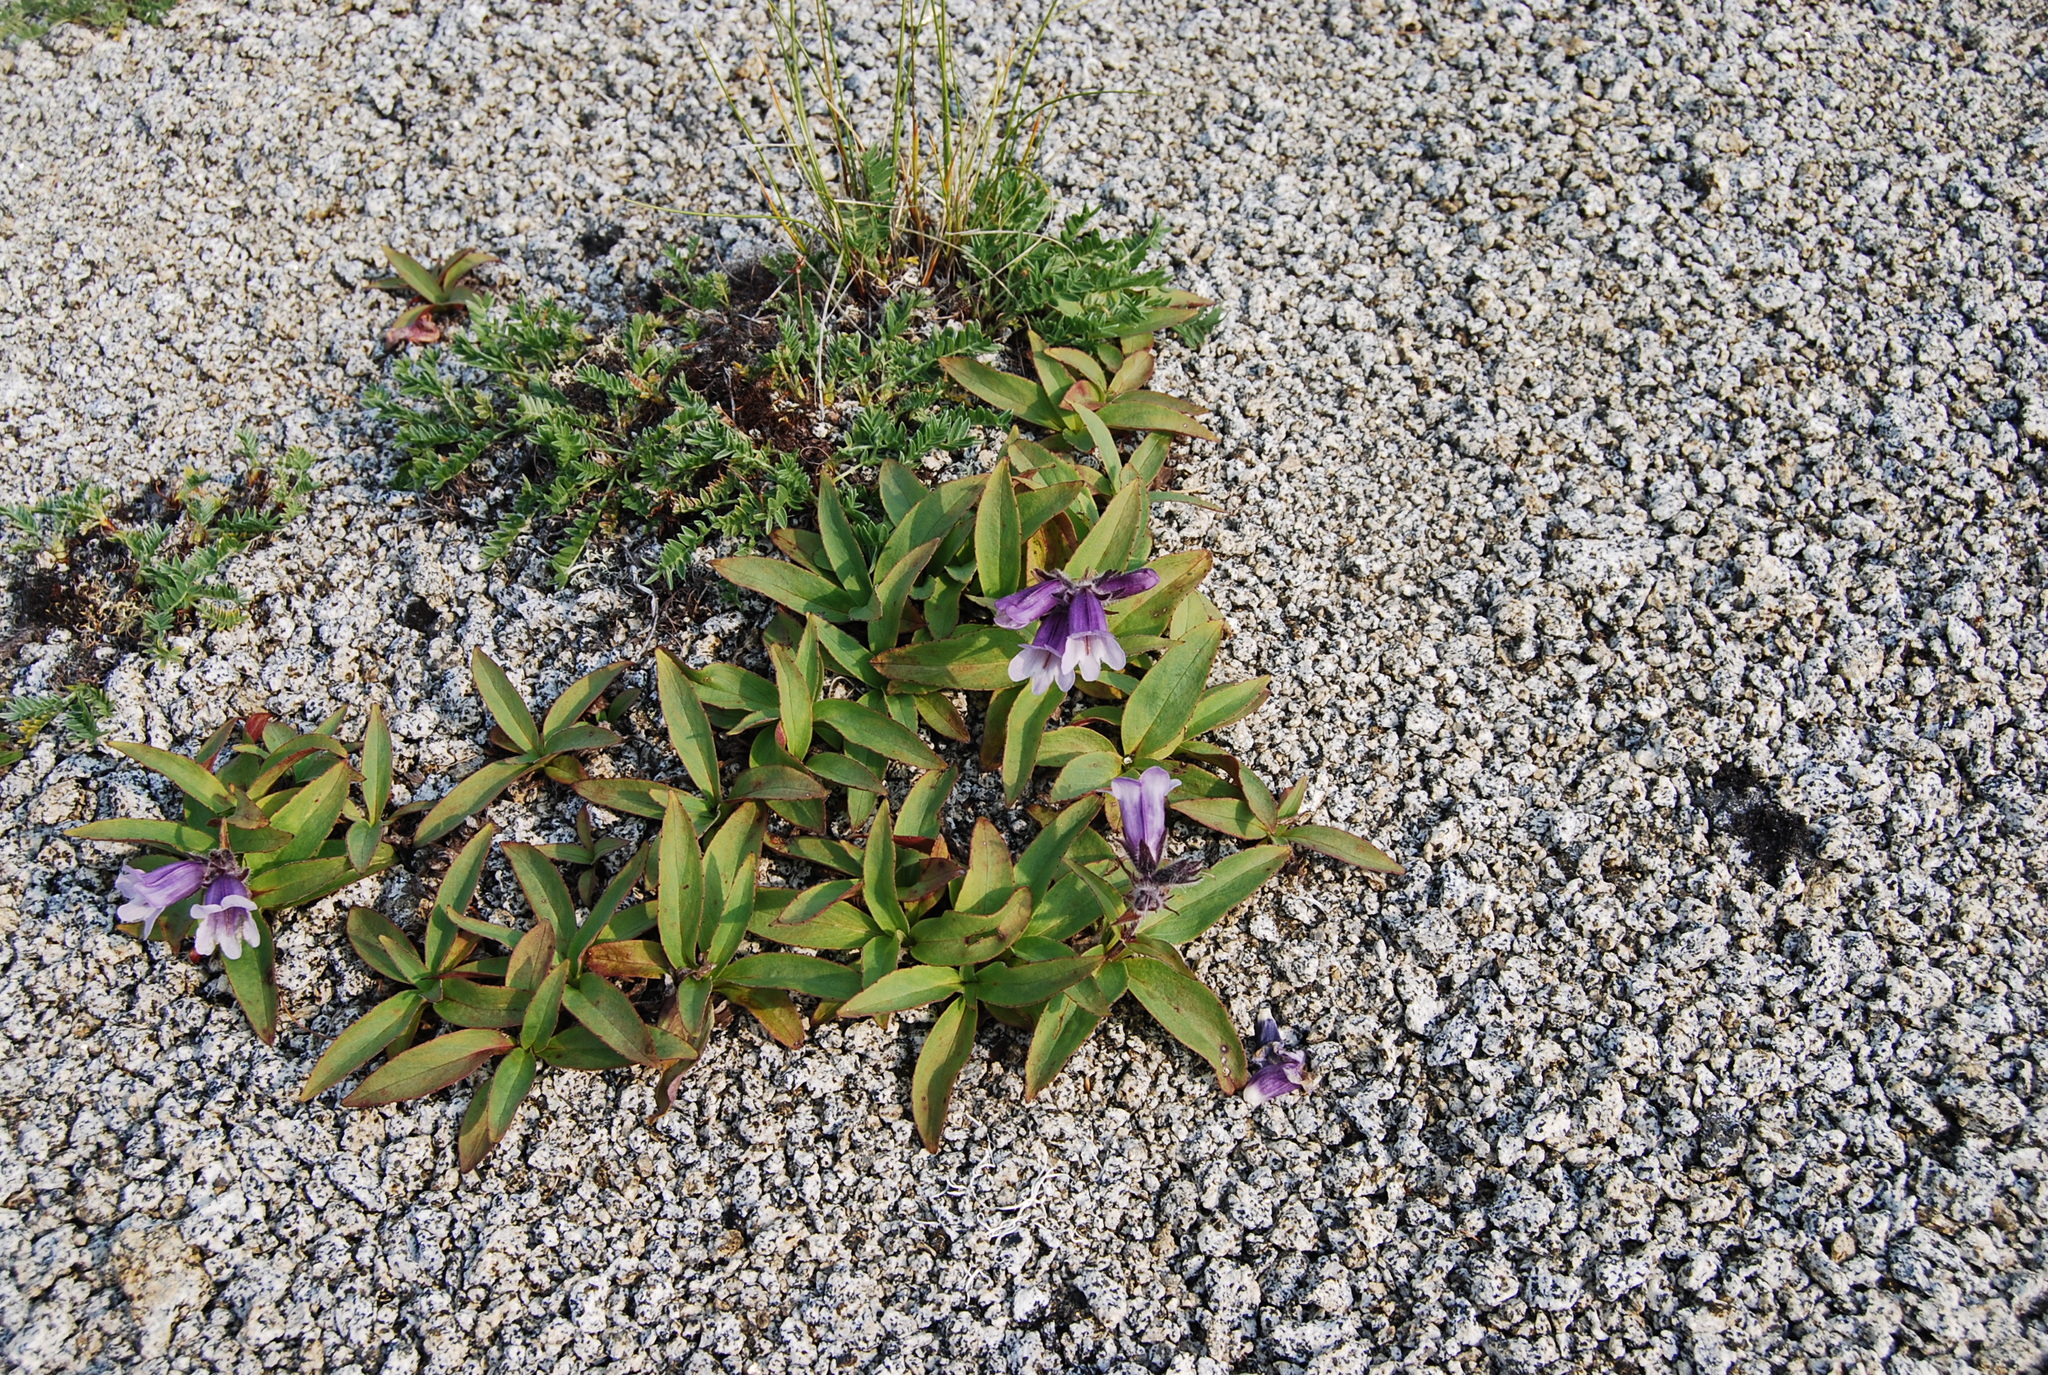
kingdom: Plantae
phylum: Tracheophyta
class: Magnoliopsida
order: Lamiales
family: Plantaginaceae
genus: Pennellianthus
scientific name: Pennellianthus frutescens
